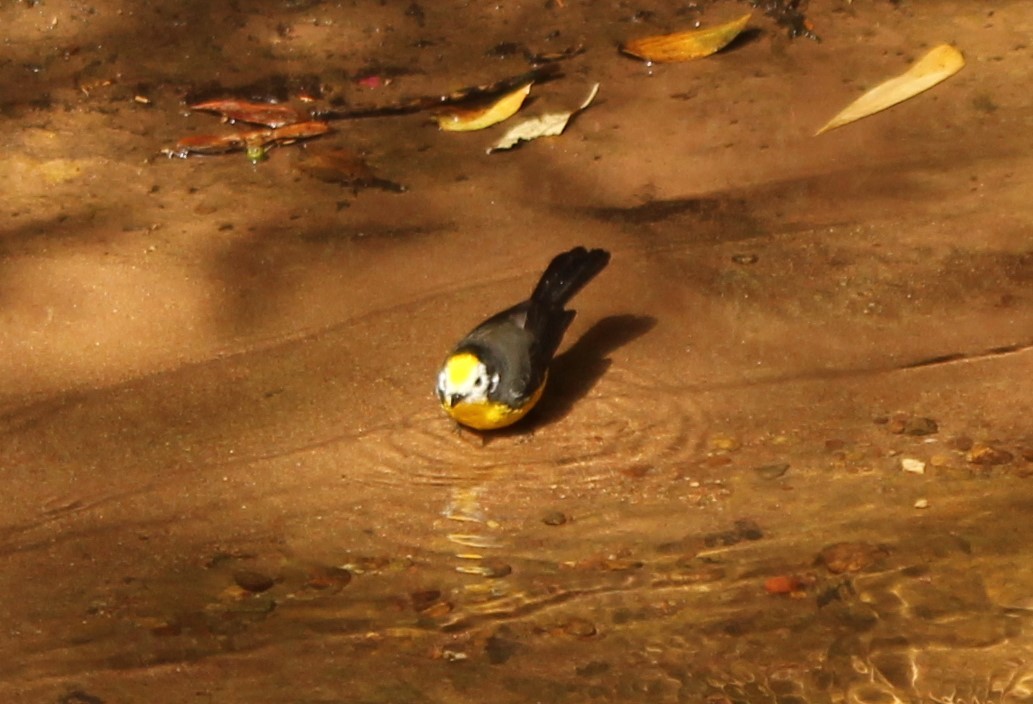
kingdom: Animalia
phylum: Chordata
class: Aves
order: Passeriformes
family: Parulidae
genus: Myioborus
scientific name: Myioborus ornatus
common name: Golden-fronted whitestart
